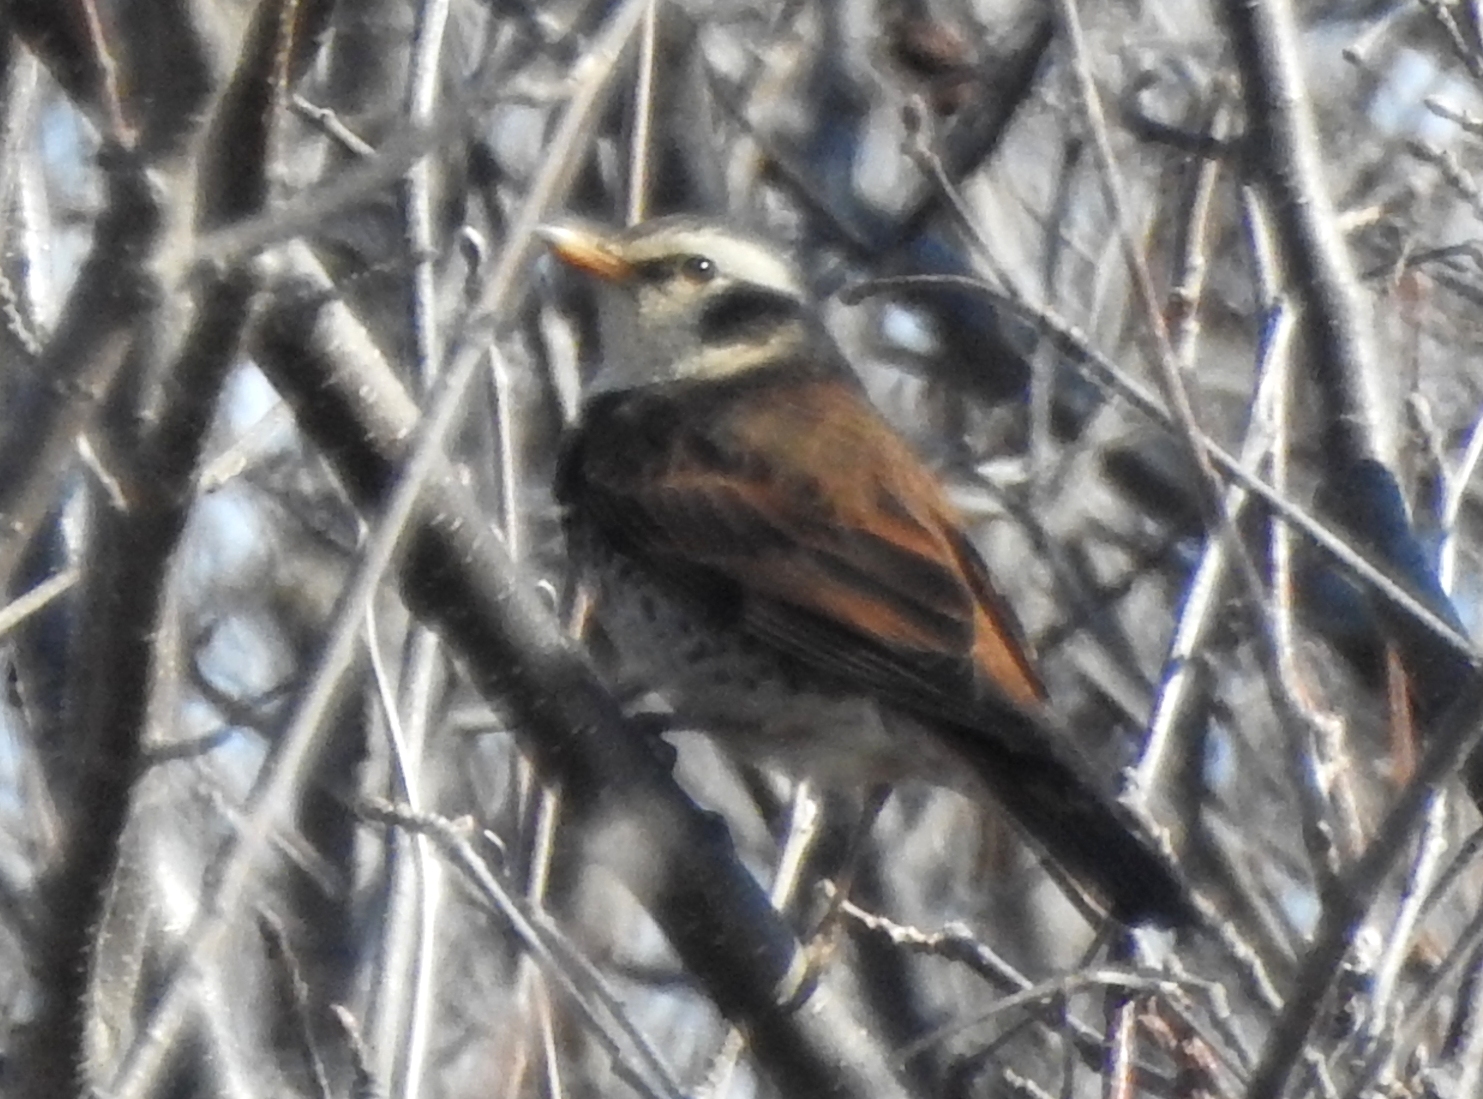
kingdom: Animalia
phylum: Chordata
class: Aves
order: Passeriformes
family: Turdidae
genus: Turdus
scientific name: Turdus eunomus
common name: Dusky thrush
